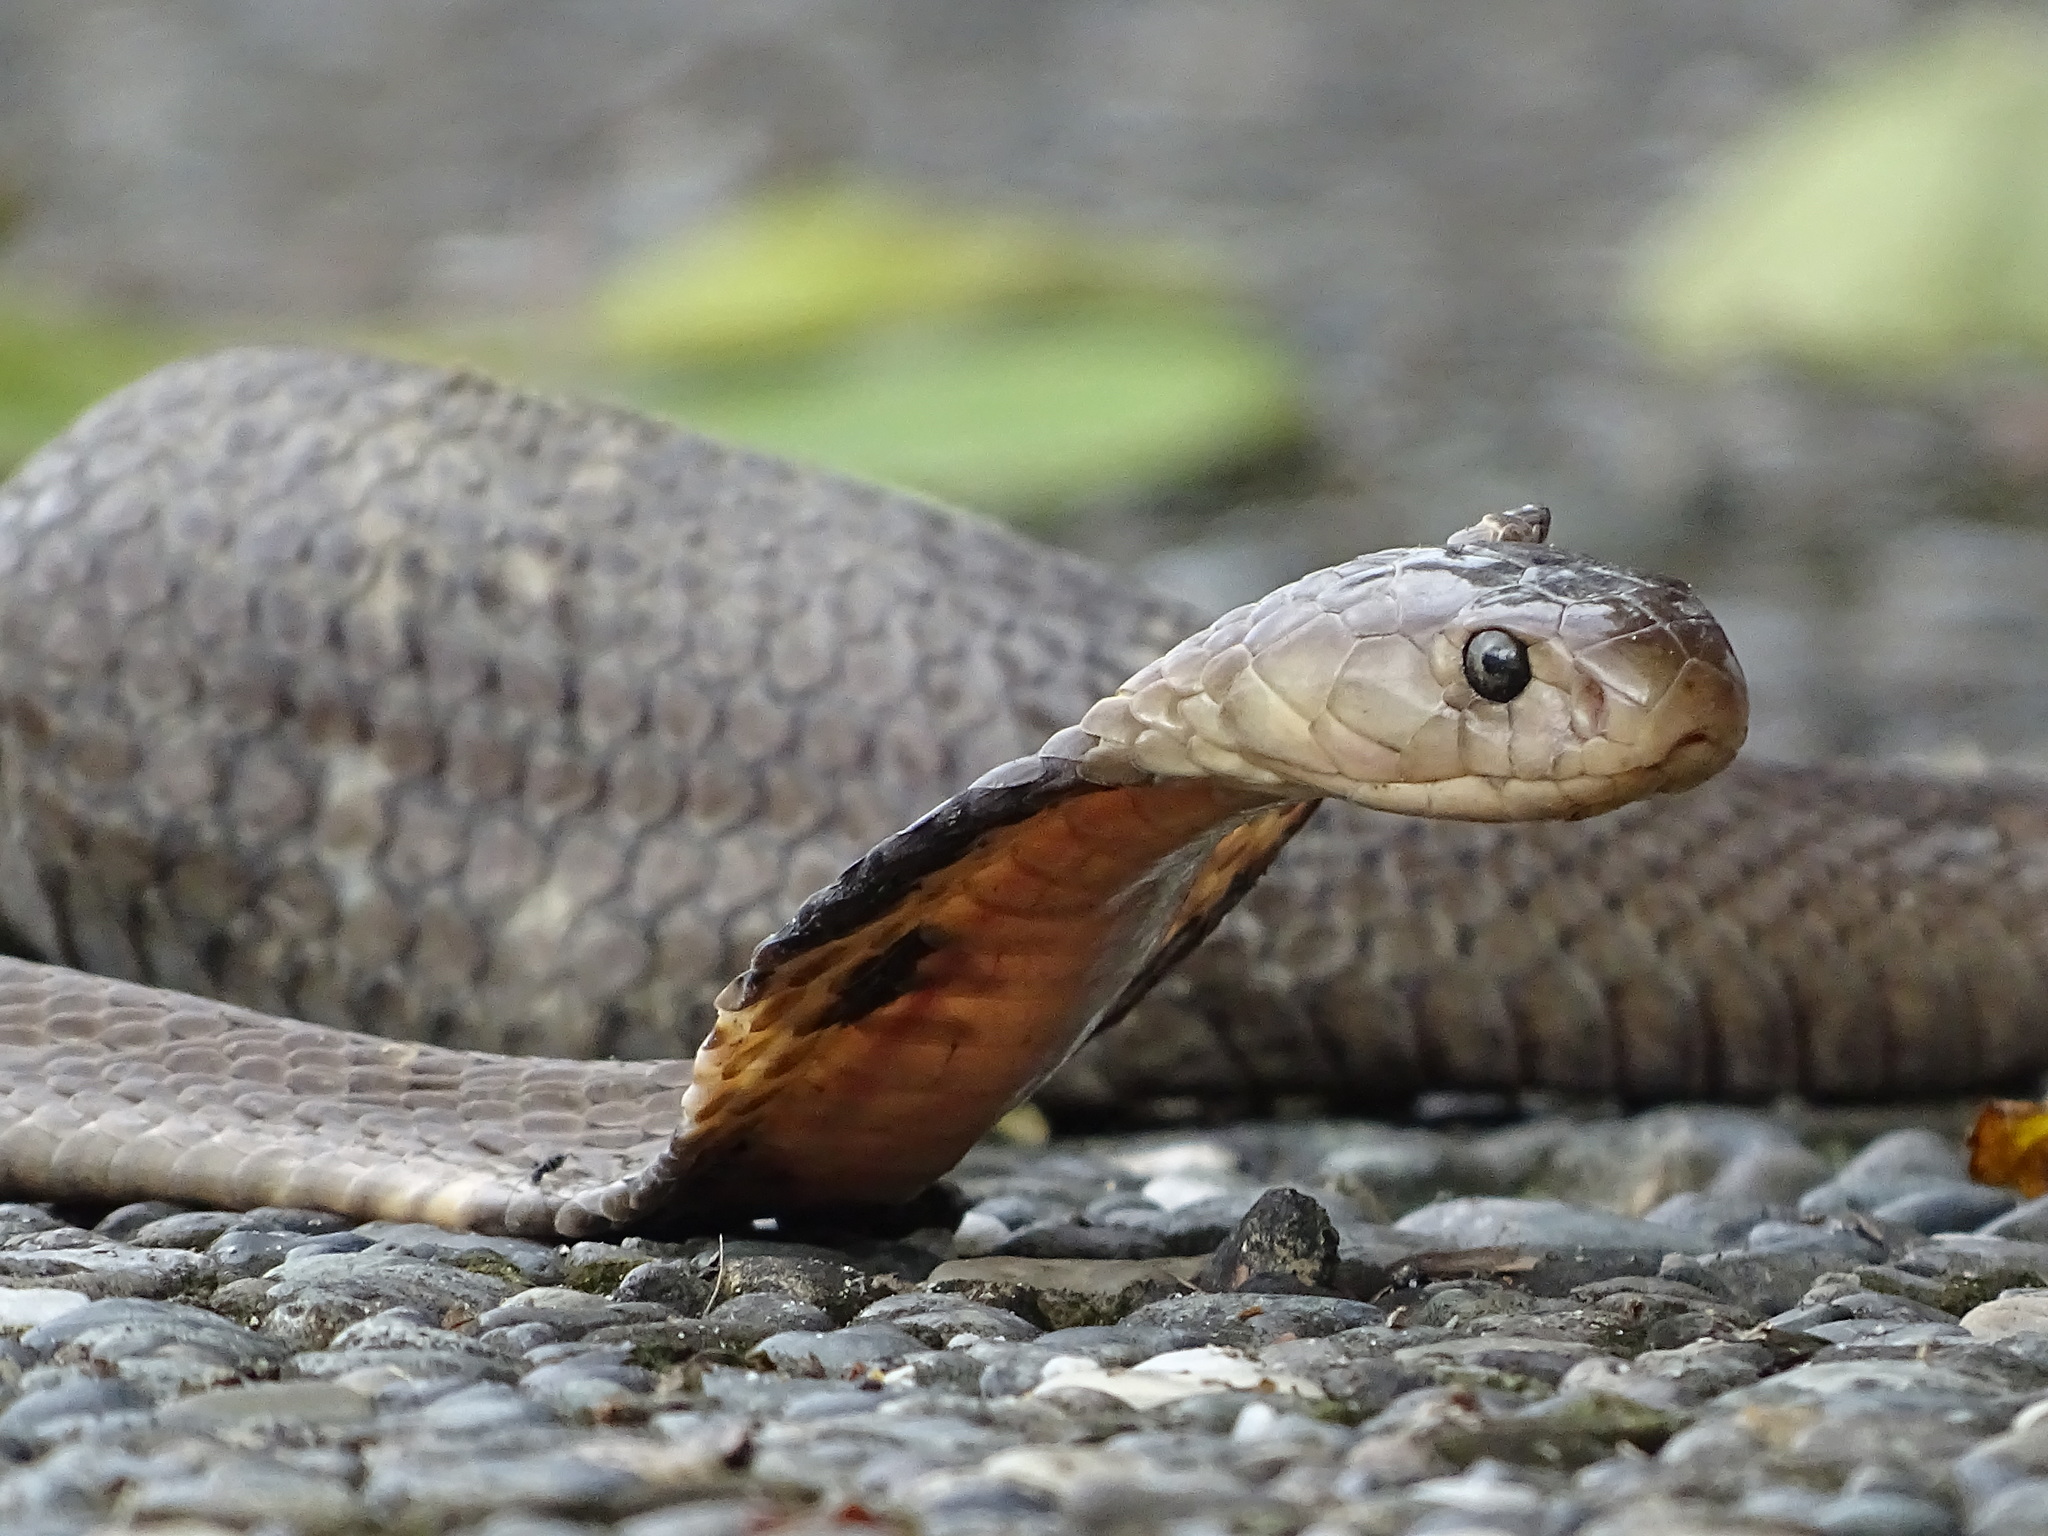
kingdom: Animalia
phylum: Chordata
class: Squamata
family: Elapidae
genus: Naja
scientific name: Naja atra
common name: Chinese cobra
